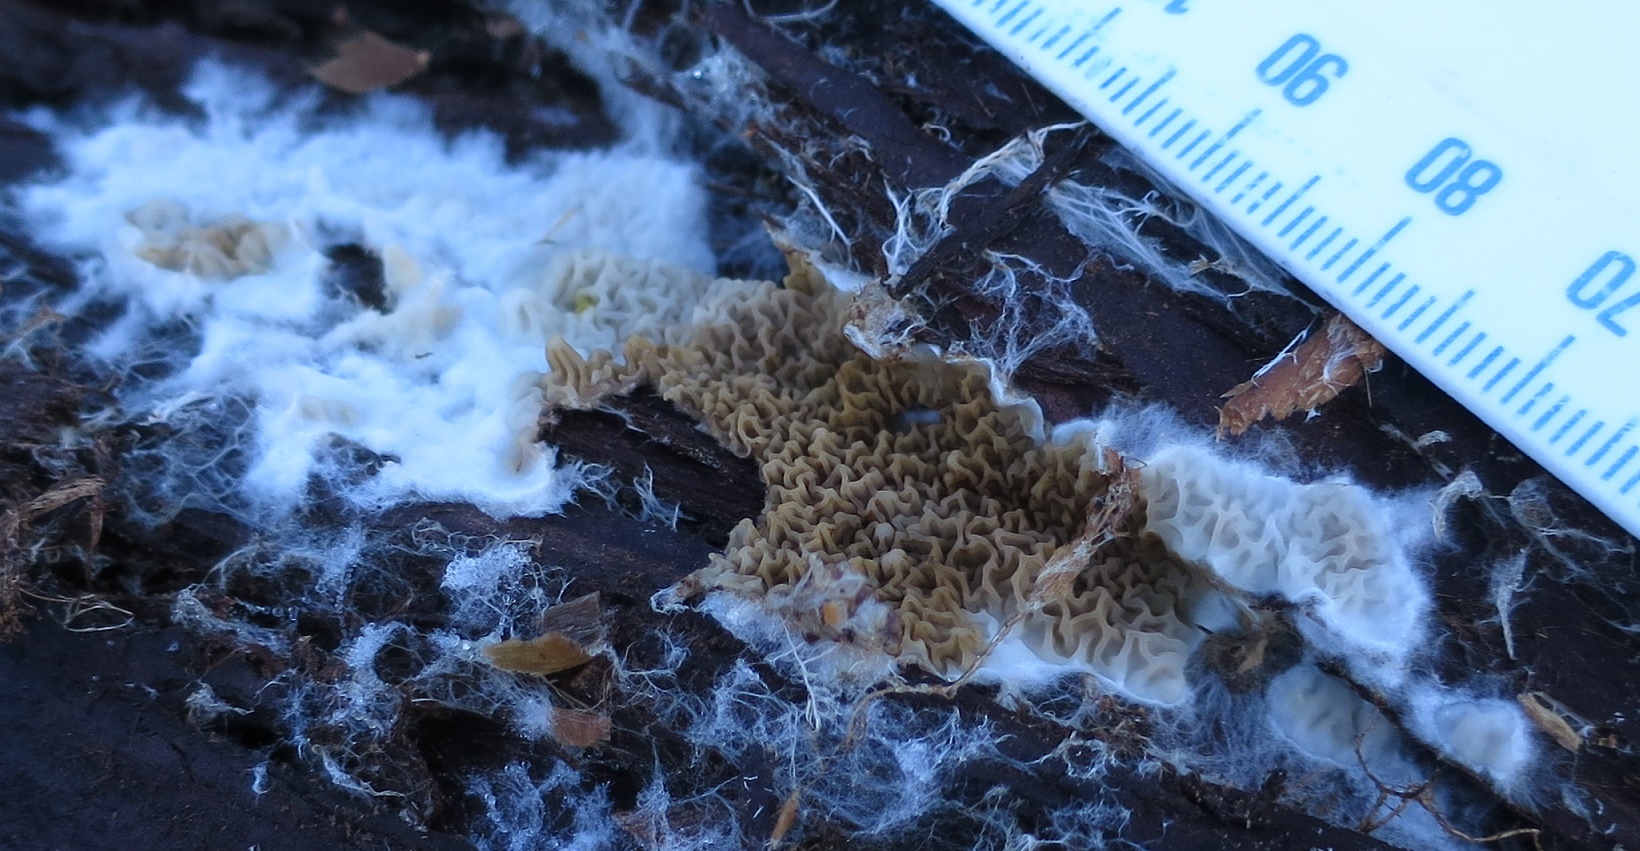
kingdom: Fungi
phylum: Basidiomycota
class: Agaricomycetes
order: Boletales
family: Serpulaceae
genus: Serpula
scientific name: Serpula himantioides
